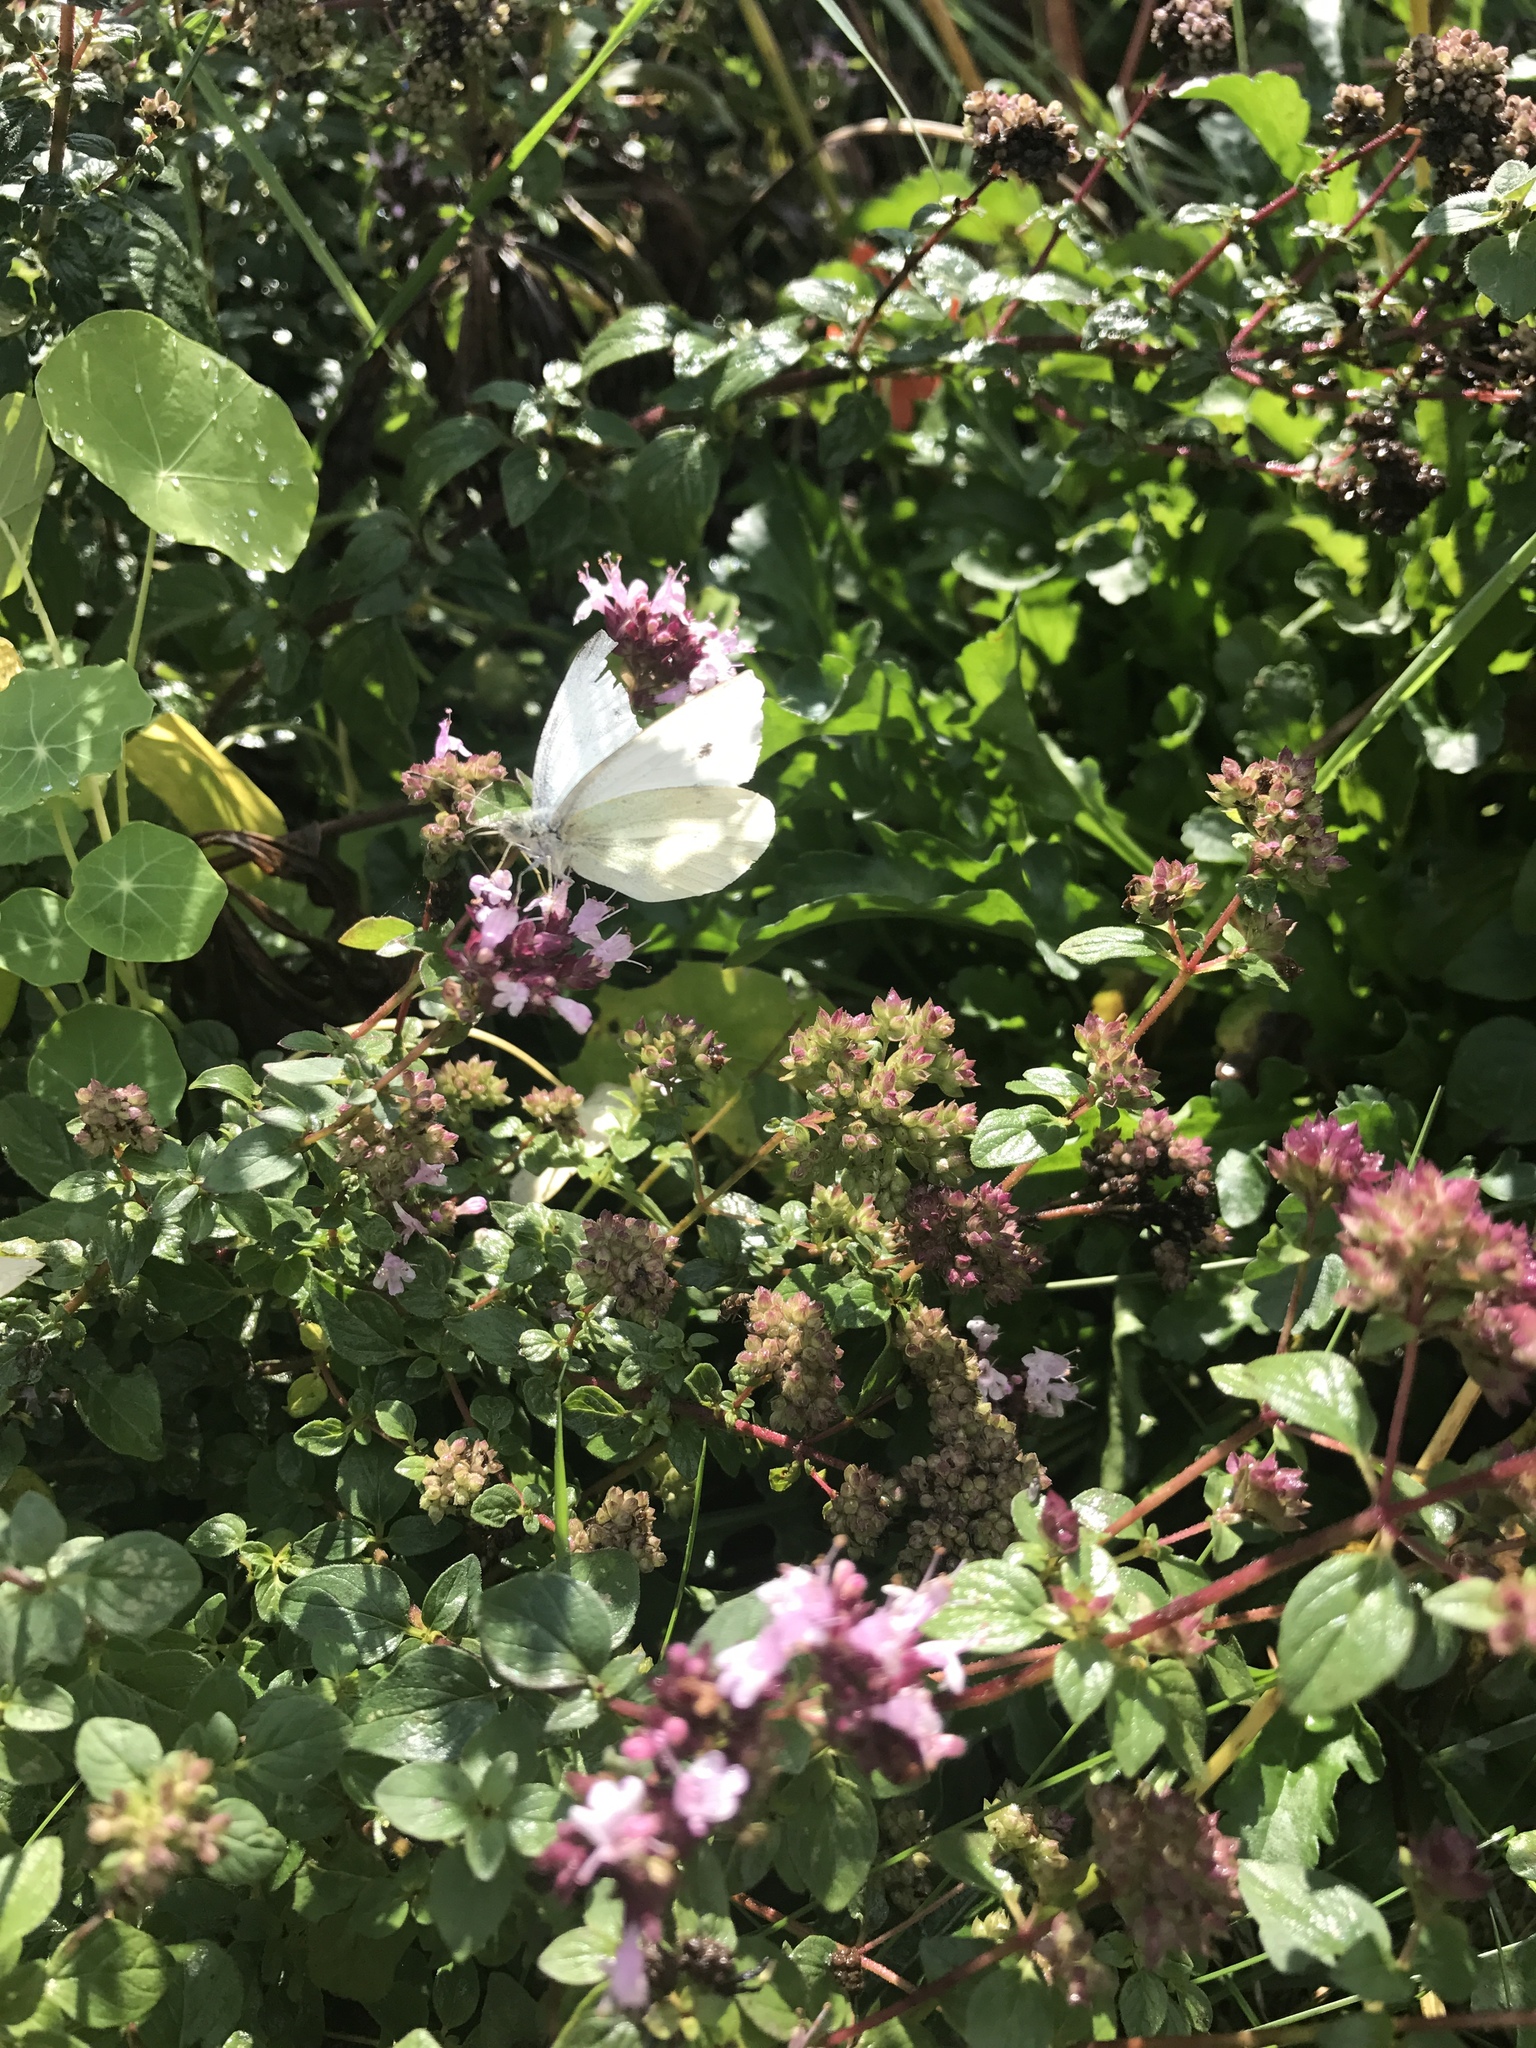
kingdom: Animalia
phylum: Arthropoda
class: Insecta
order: Lepidoptera
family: Pieridae
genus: Pieris
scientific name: Pieris rapae
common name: Small white
